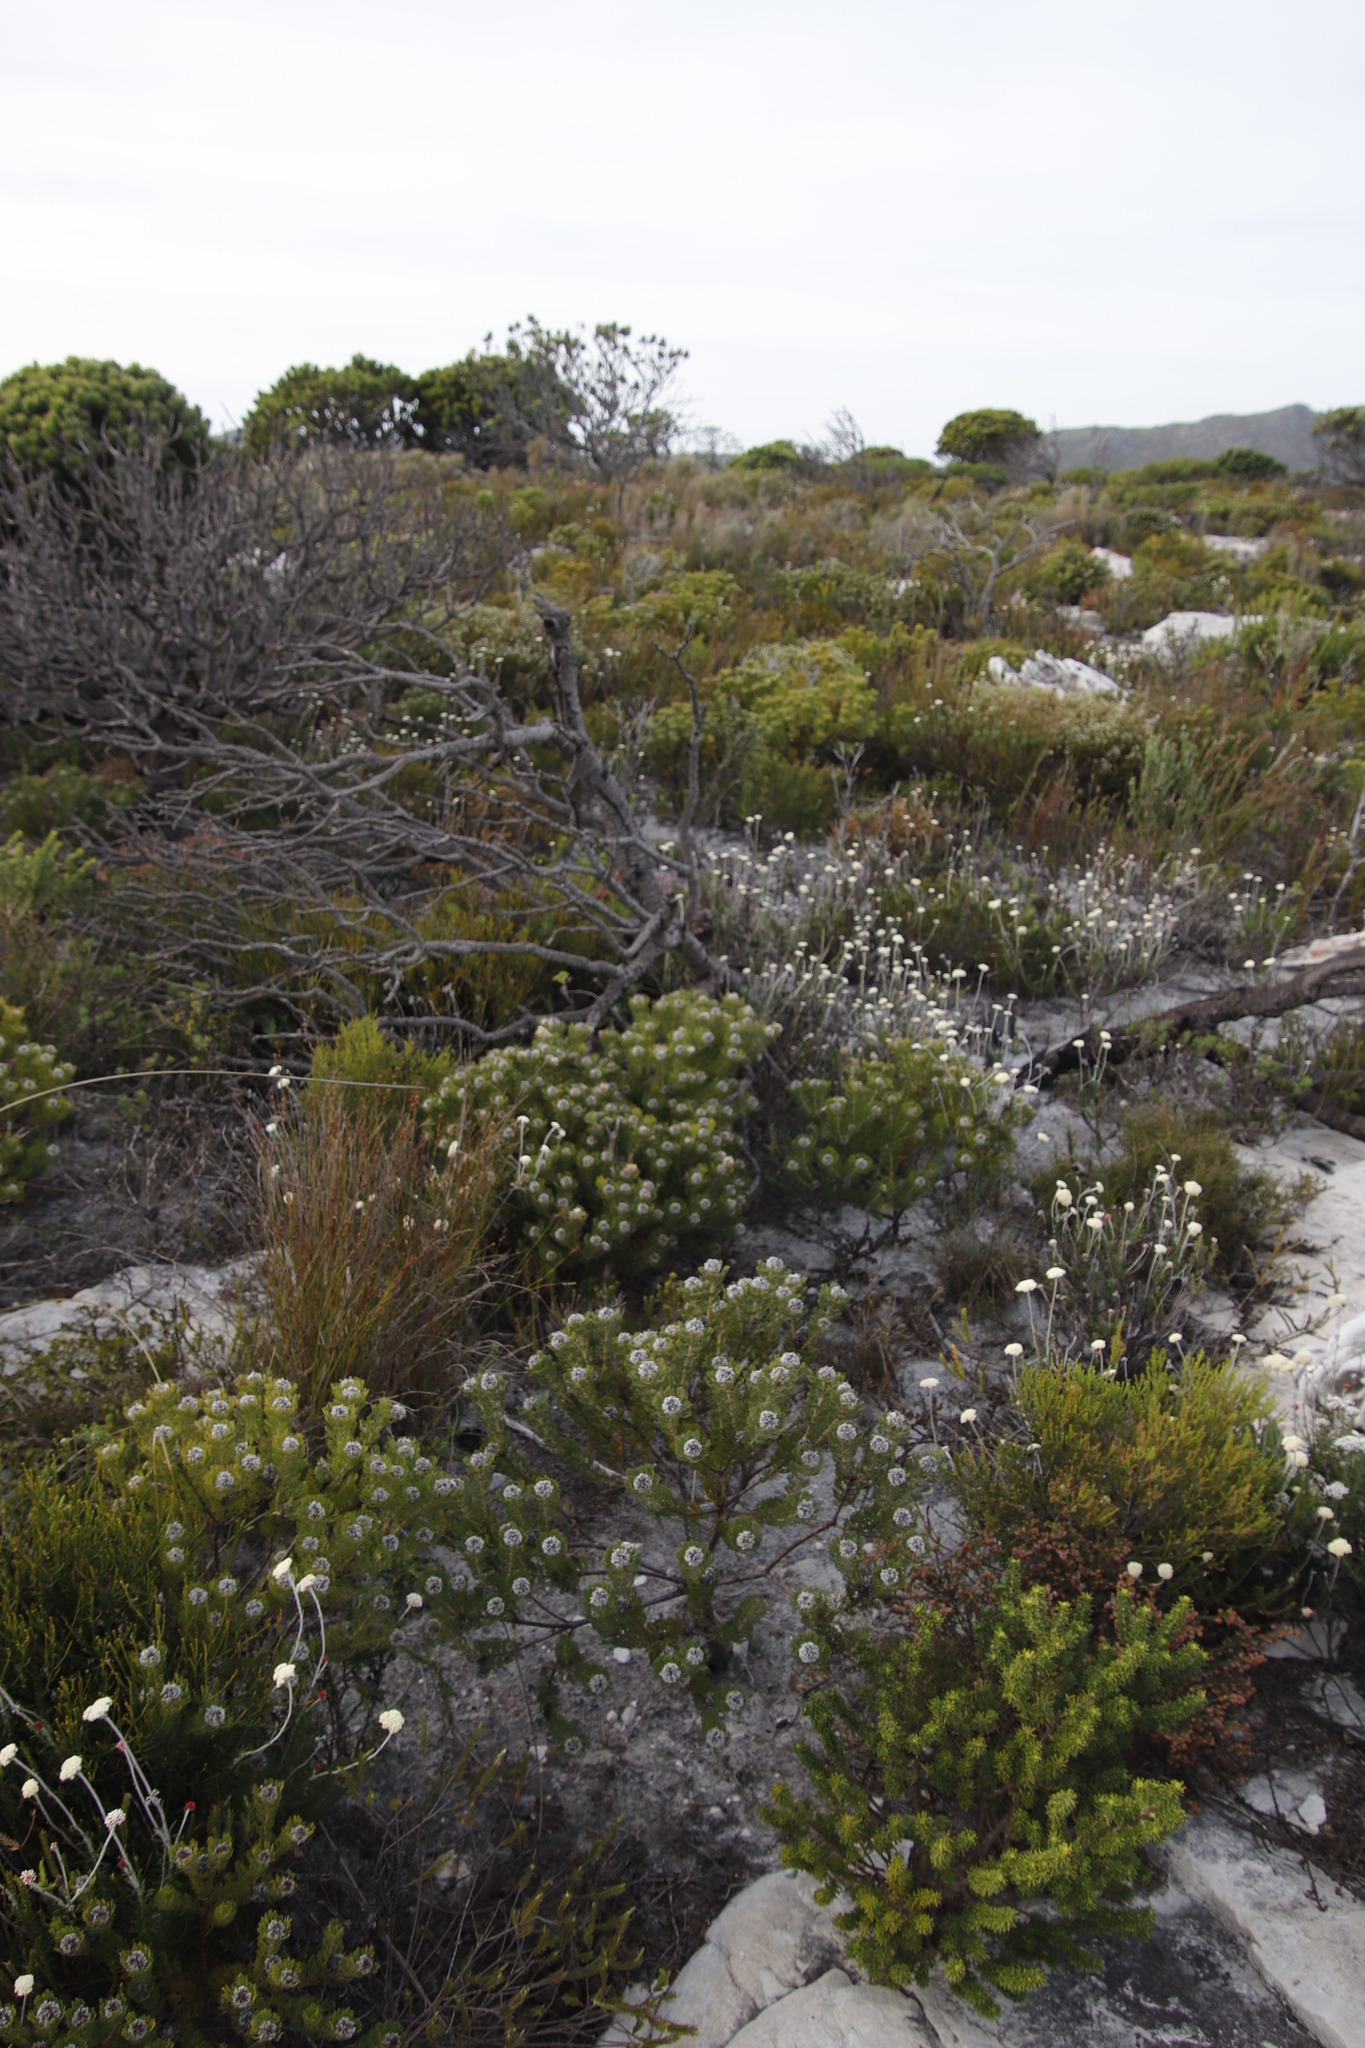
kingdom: Plantae
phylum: Tracheophyta
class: Magnoliopsida
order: Proteales
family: Proteaceae
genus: Serruria
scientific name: Serruria villosa
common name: Golden spiderhead
